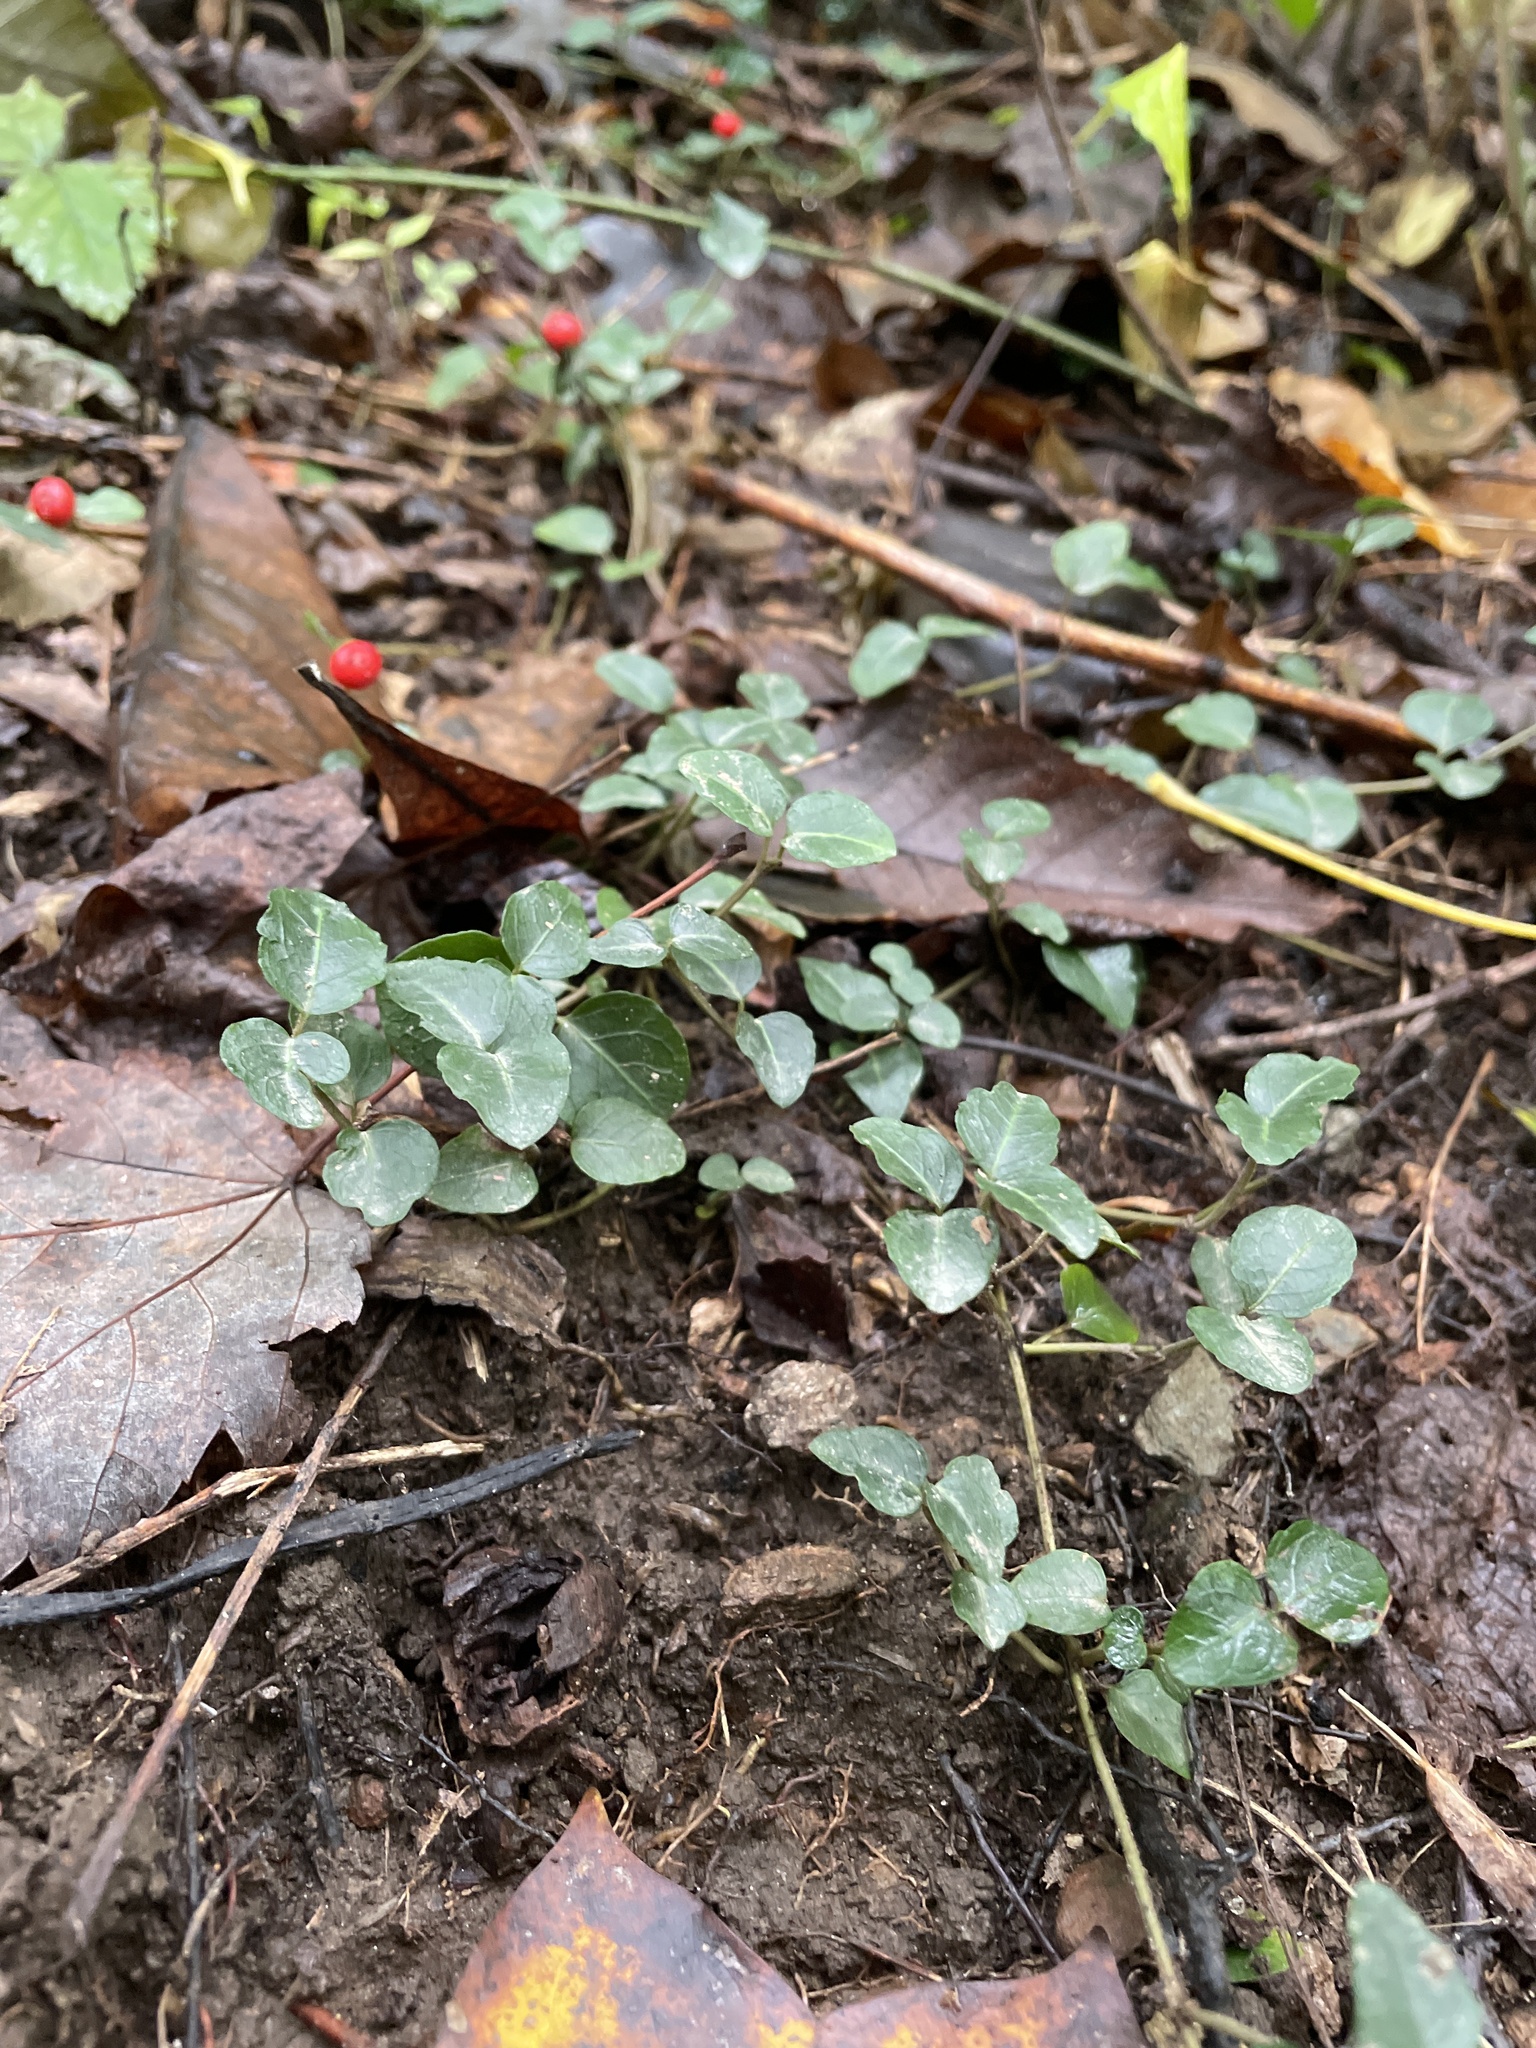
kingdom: Plantae
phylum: Tracheophyta
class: Magnoliopsida
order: Gentianales
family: Rubiaceae
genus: Mitchella
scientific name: Mitchella repens
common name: Partridge-berry
